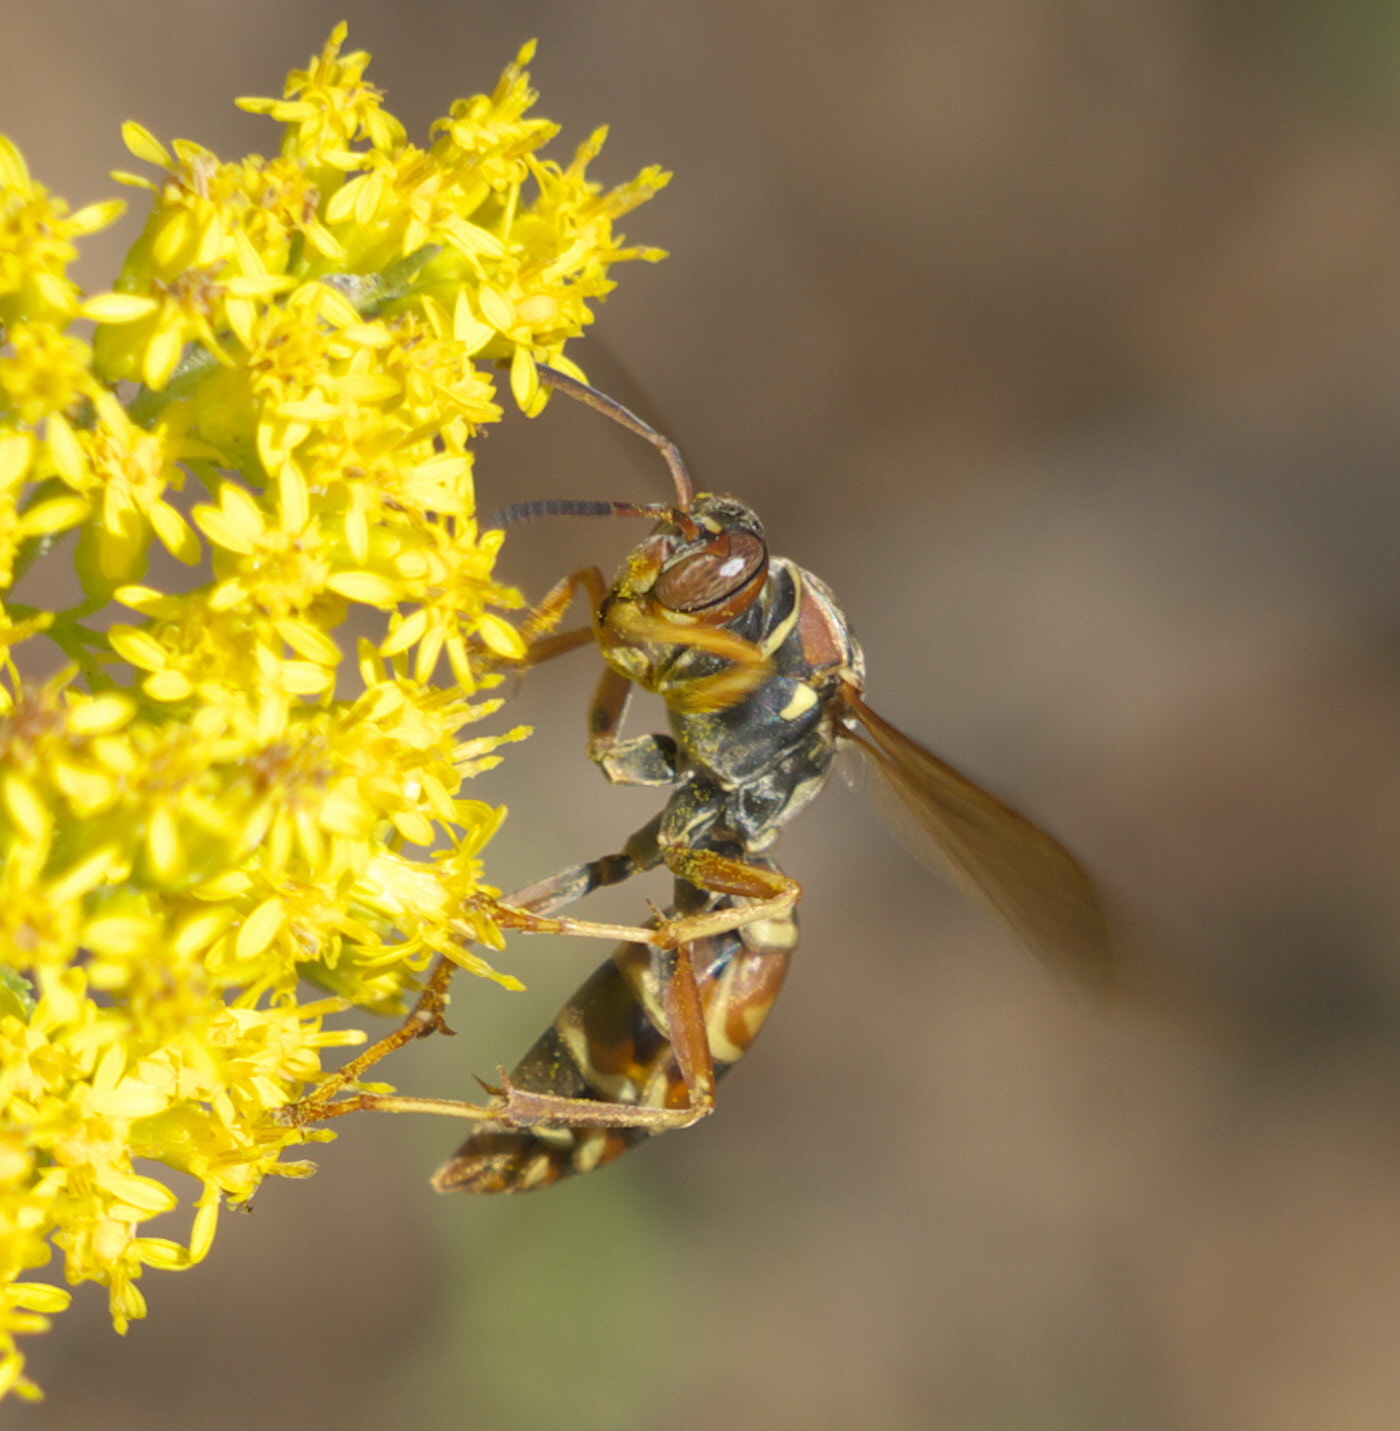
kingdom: Animalia
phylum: Arthropoda
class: Insecta
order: Hymenoptera
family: Eumenidae
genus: Polistes
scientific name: Polistes fuscatus
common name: Dark paper wasp
